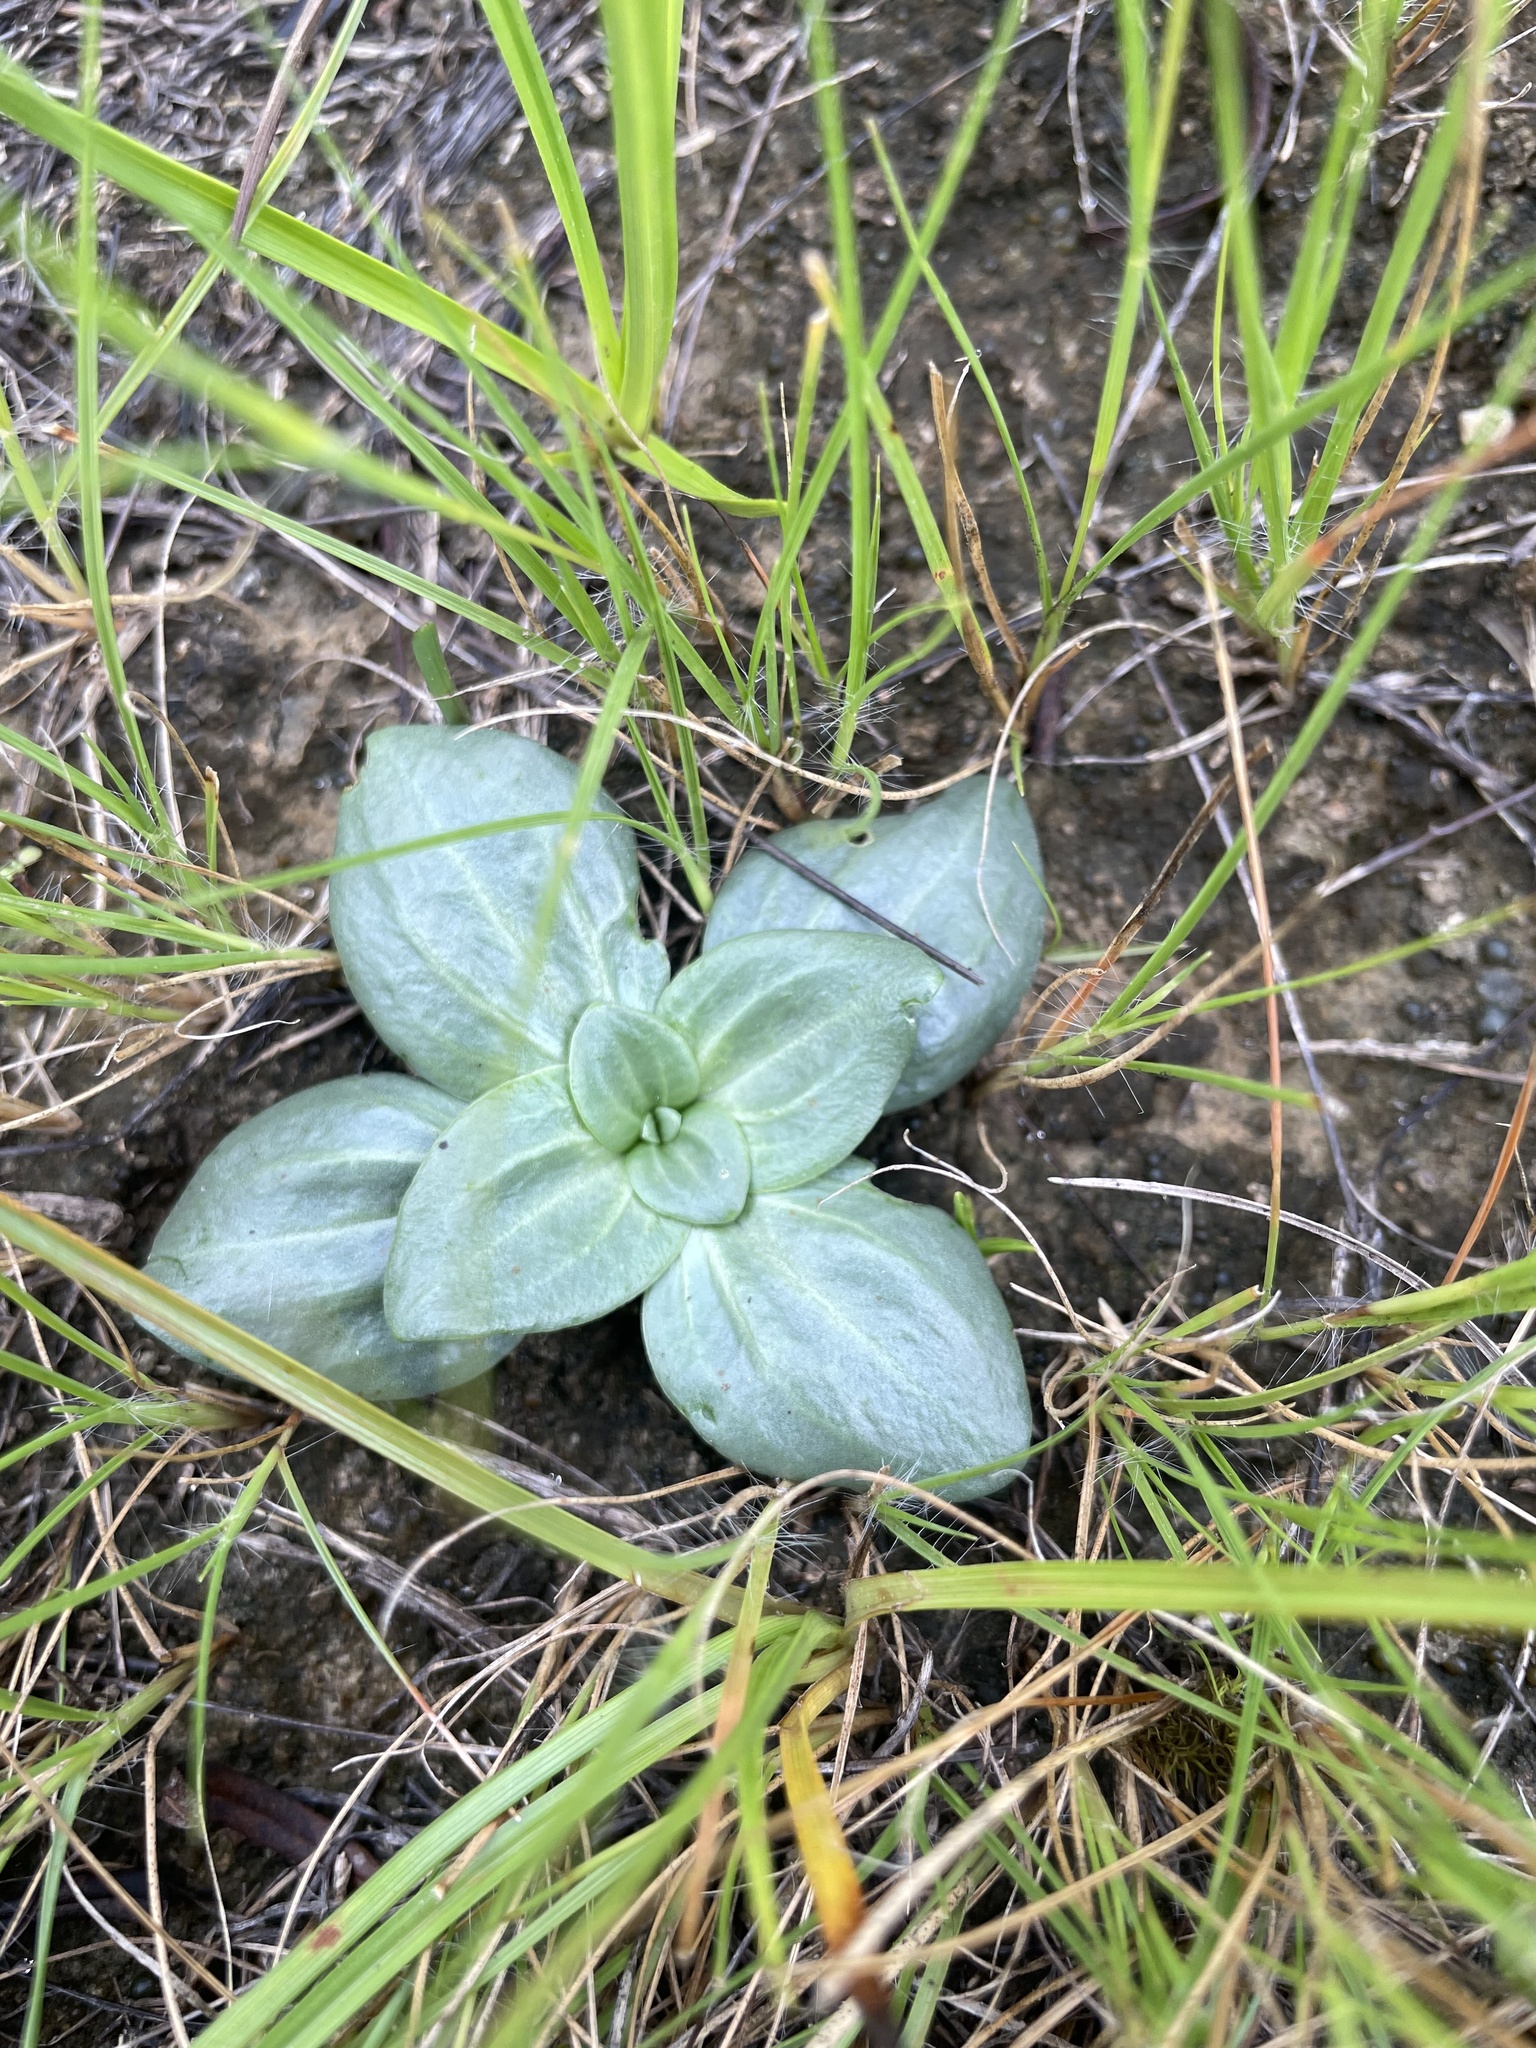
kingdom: Plantae
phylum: Tracheophyta
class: Magnoliopsida
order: Gentianales
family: Gentianaceae
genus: Sabatia
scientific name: Sabatia angularis
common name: Rose-pink
